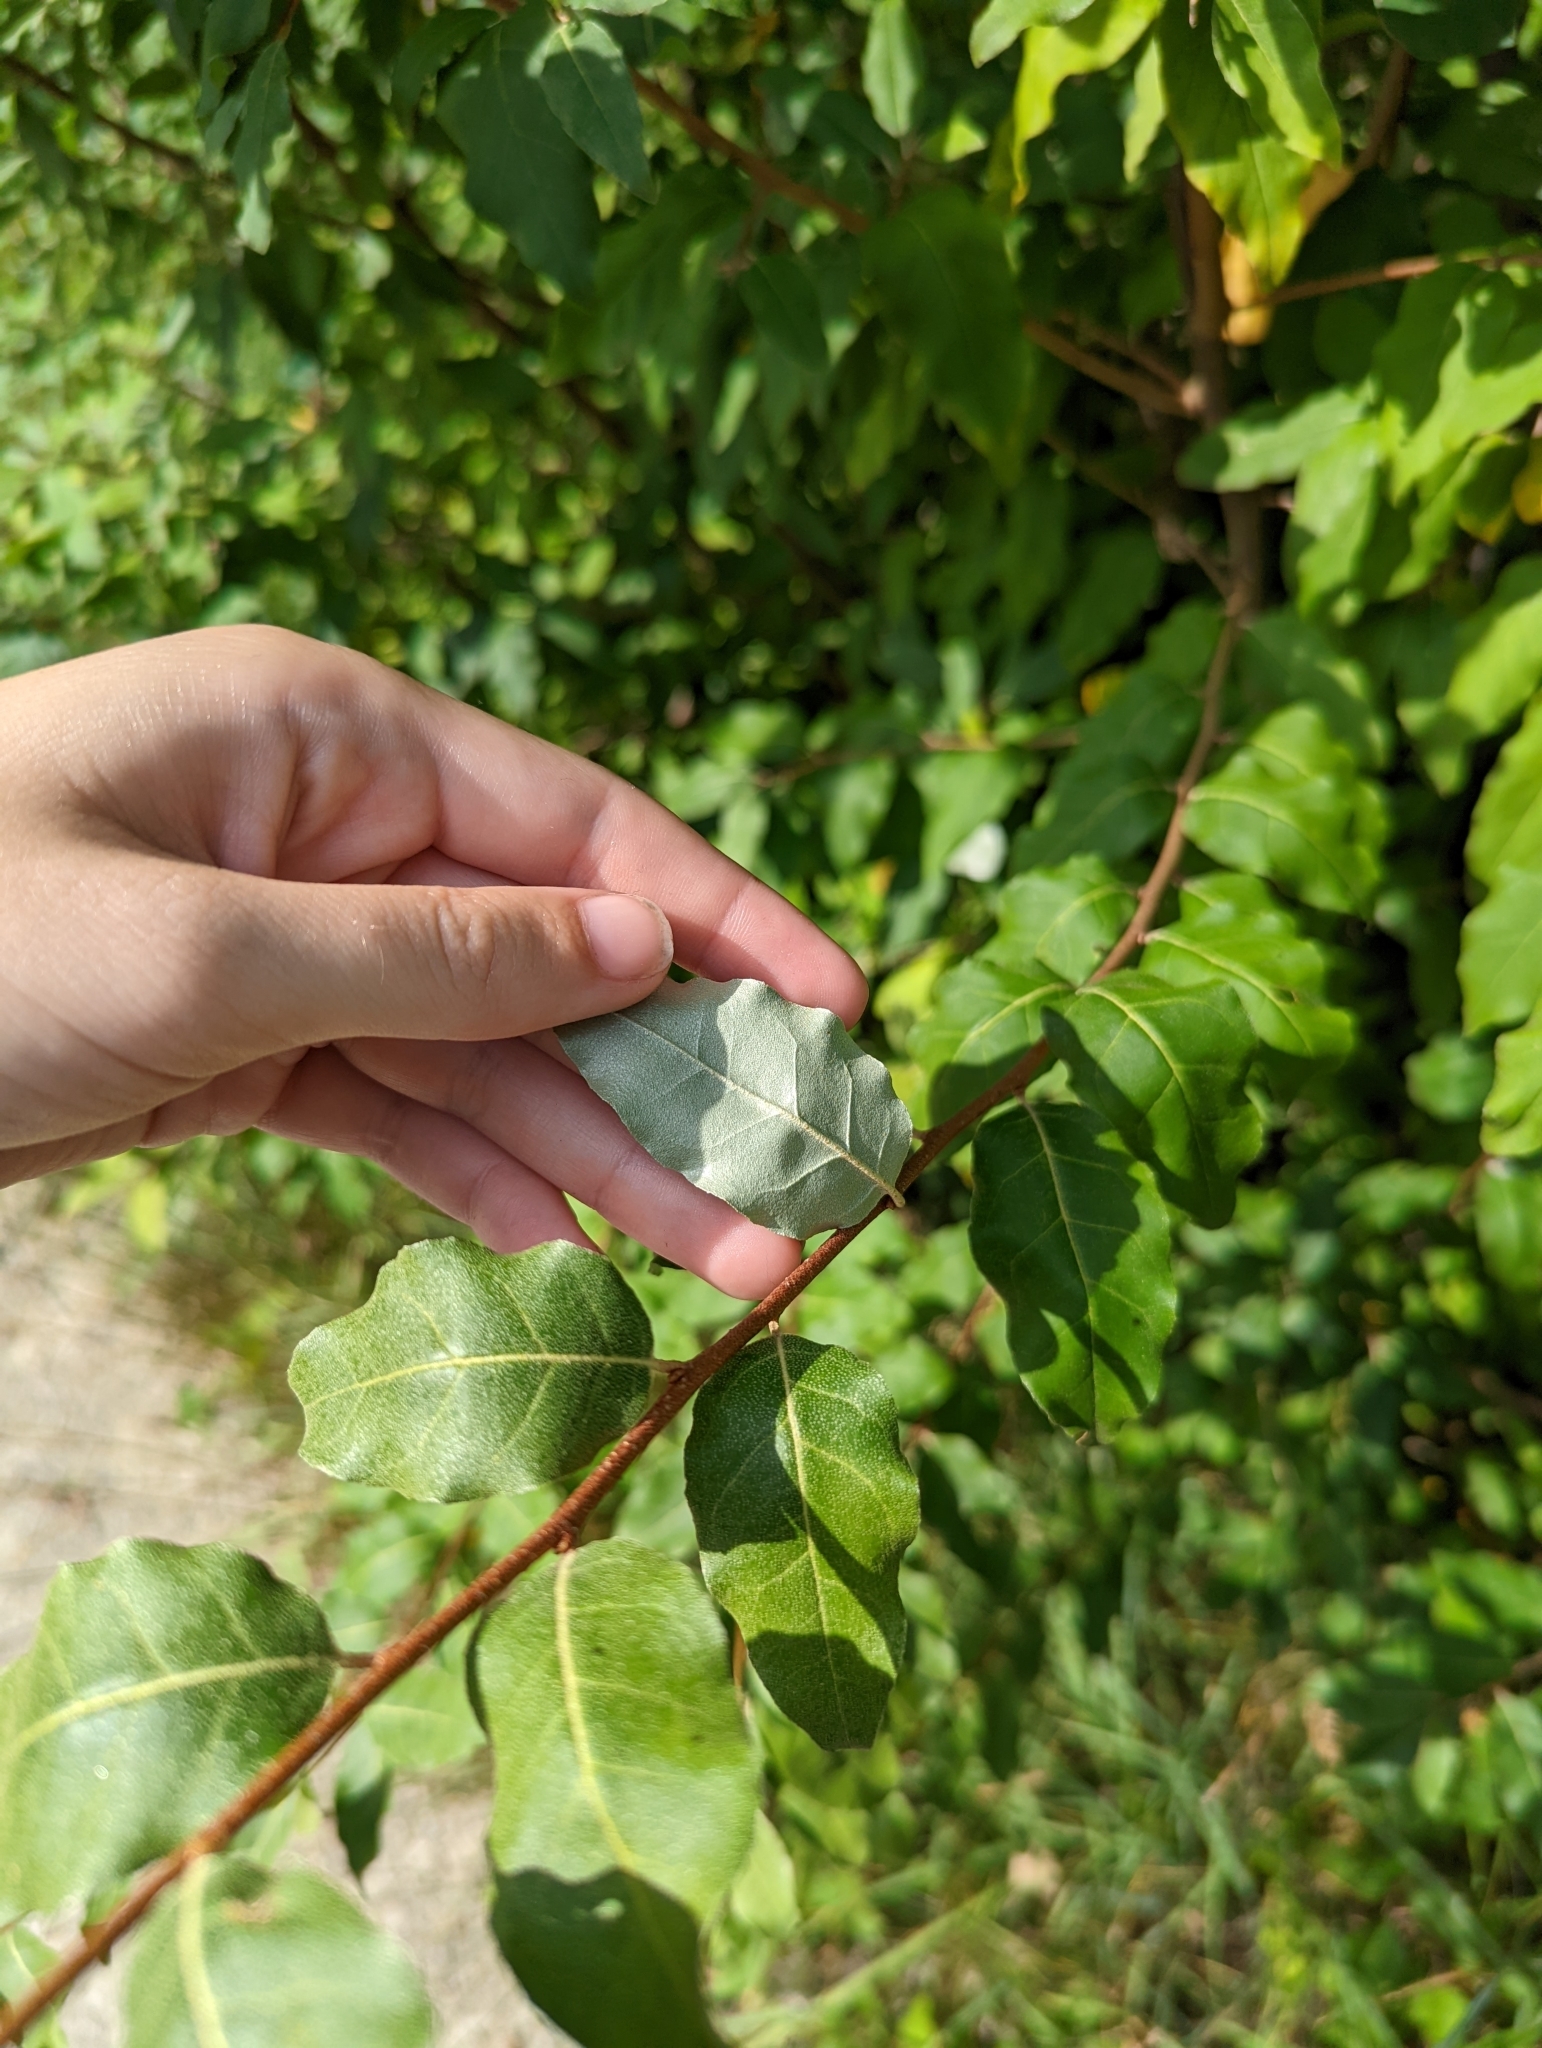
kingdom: Plantae
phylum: Tracheophyta
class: Magnoliopsida
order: Rosales
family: Elaeagnaceae
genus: Elaeagnus
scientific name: Elaeagnus umbellata
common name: Autumn olive
